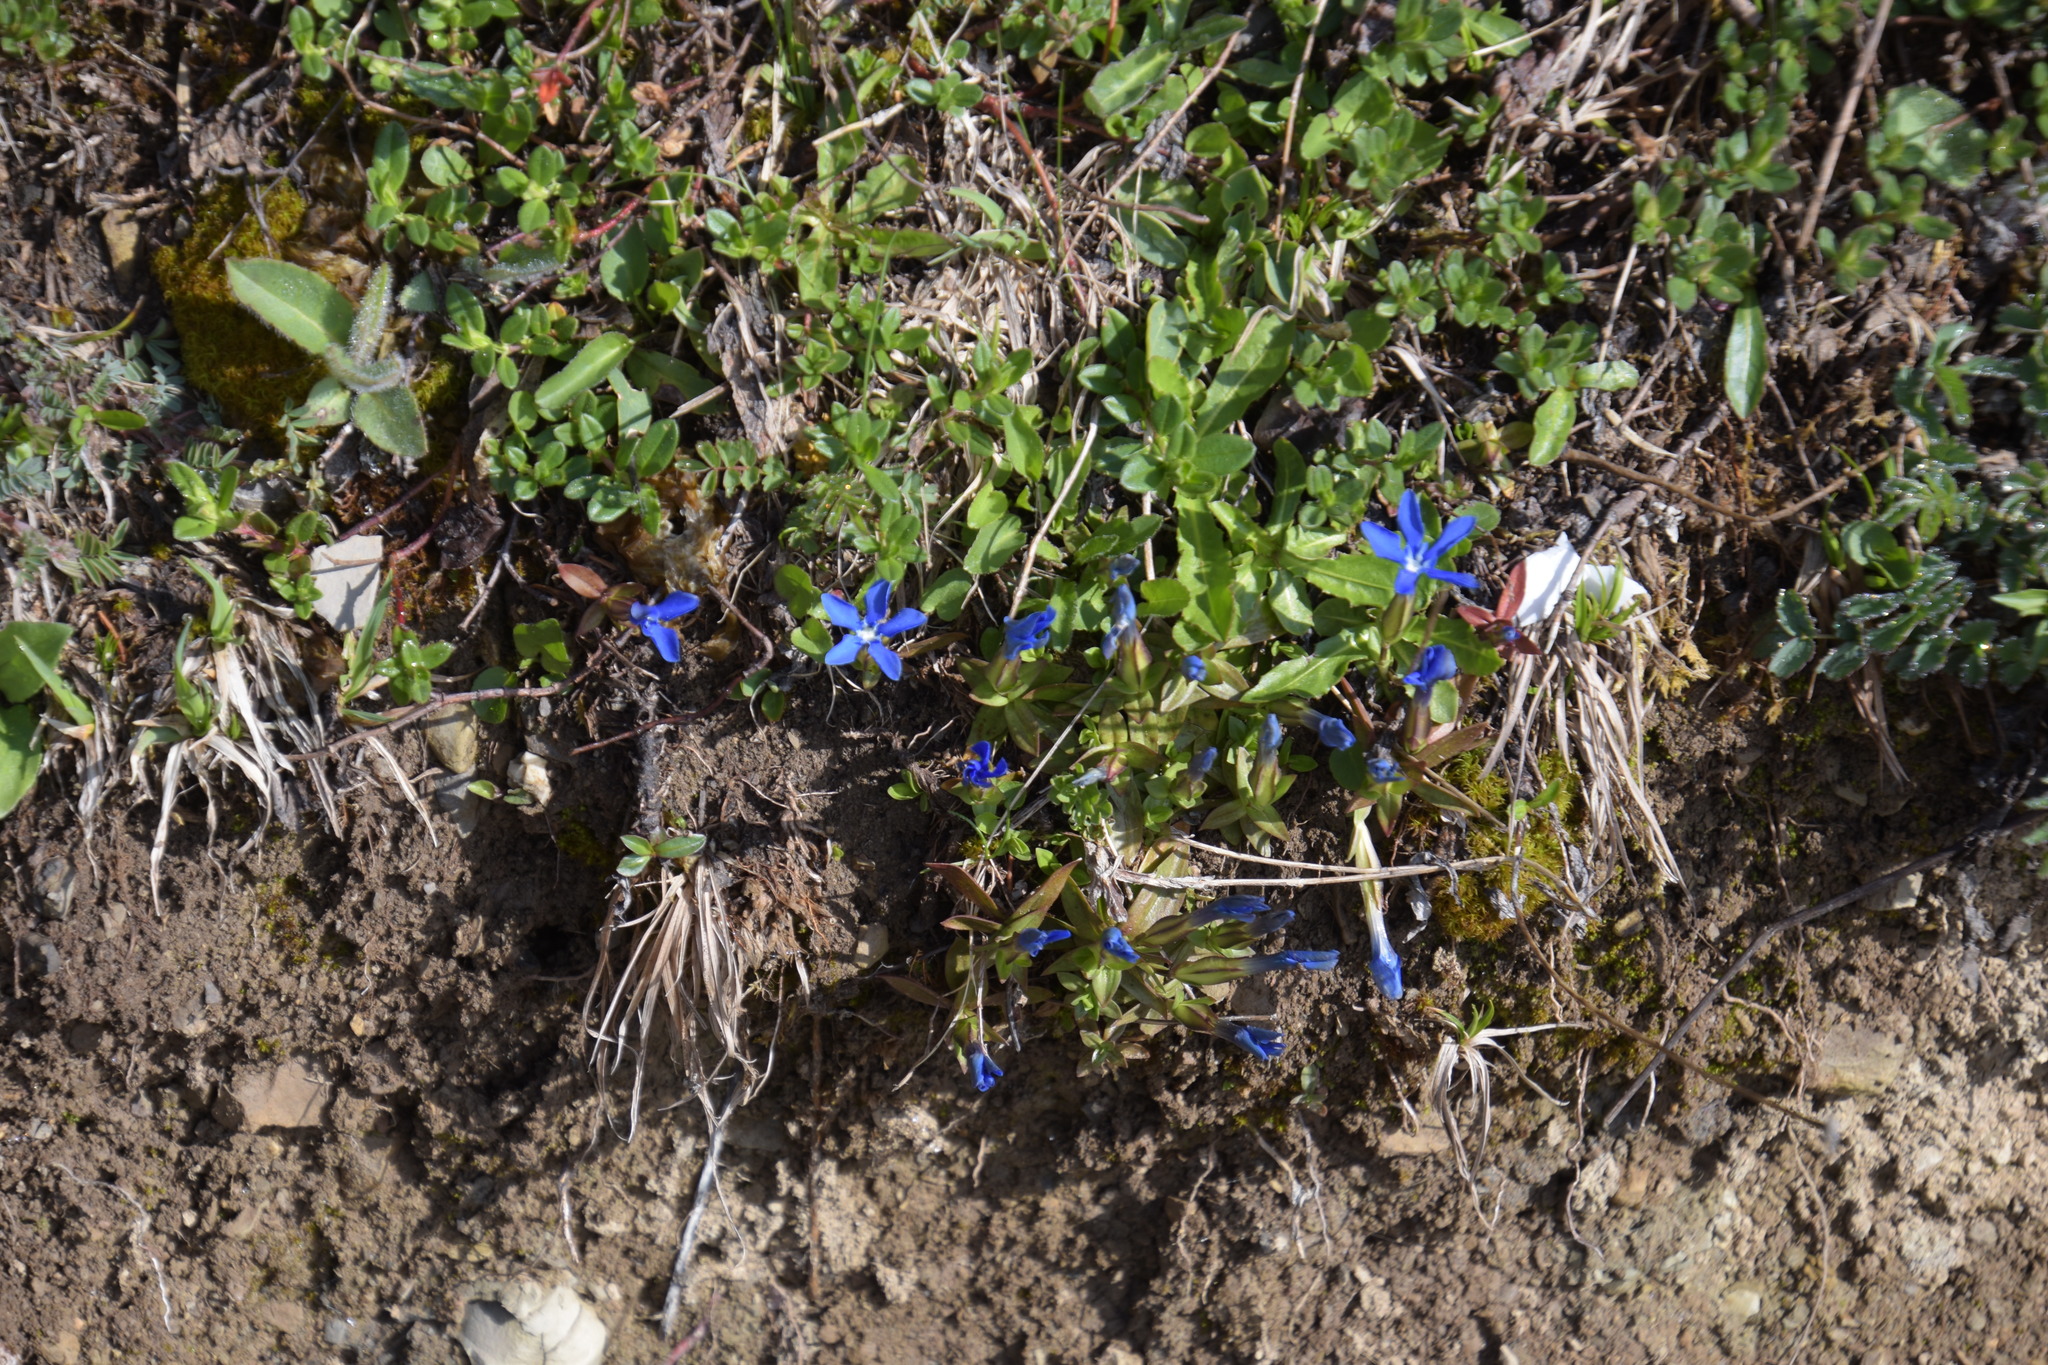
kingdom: Plantae
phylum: Tracheophyta
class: Magnoliopsida
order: Gentianales
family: Gentianaceae
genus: Gentiana
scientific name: Gentiana verna
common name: Spring gentian
